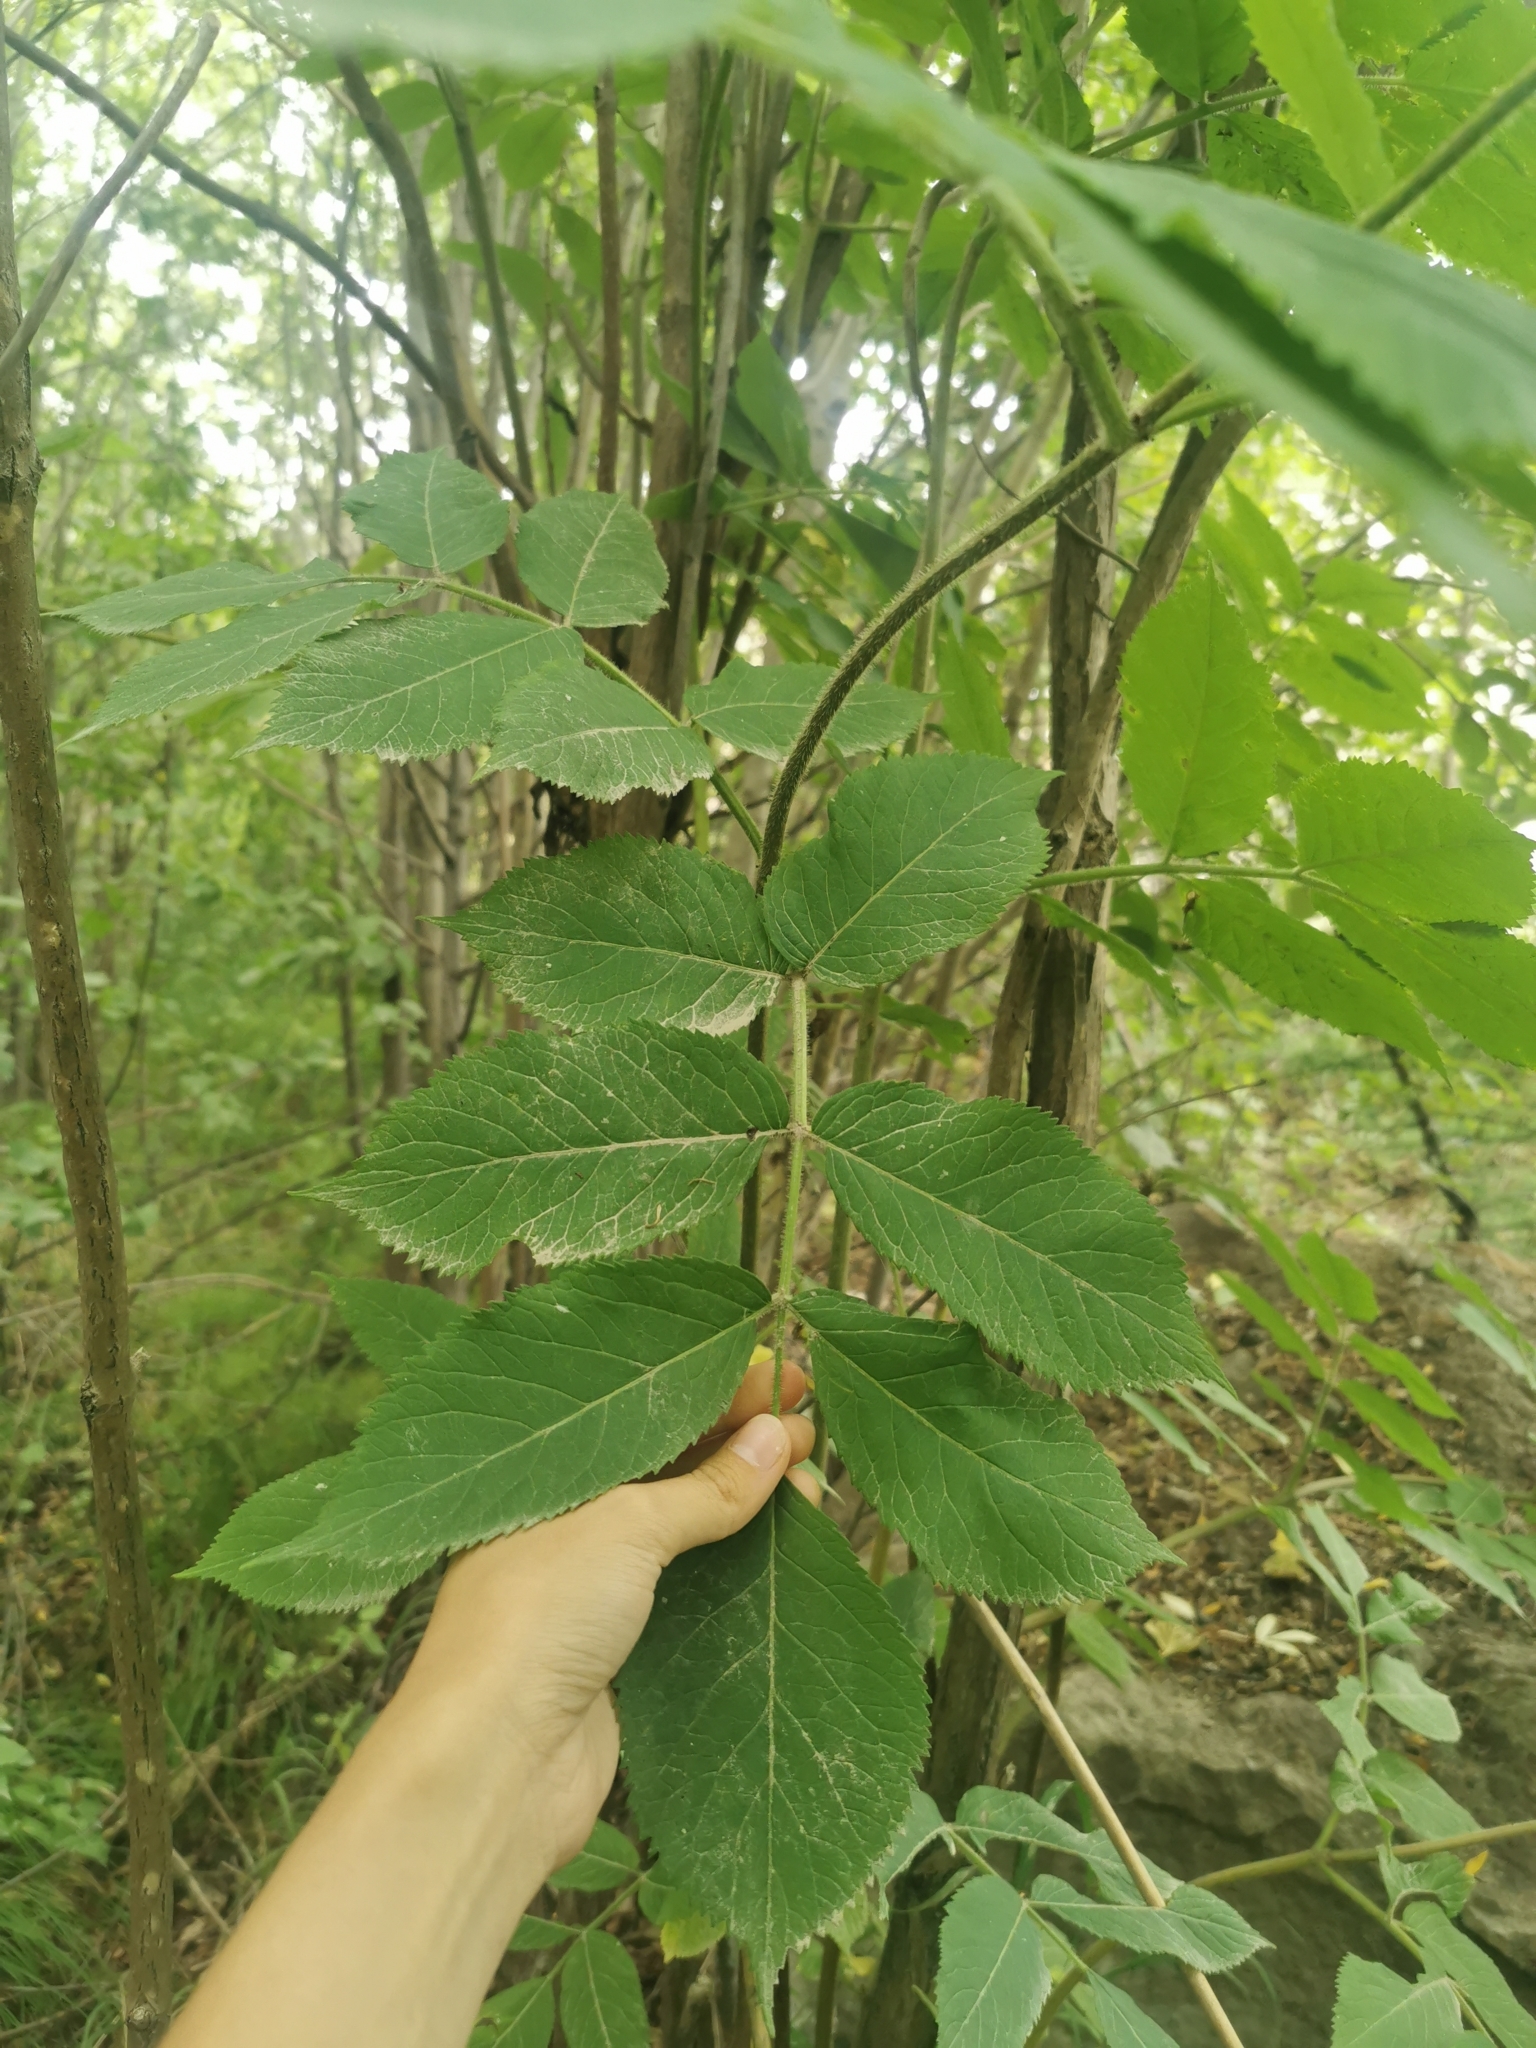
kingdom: Plantae
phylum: Tracheophyta
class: Magnoliopsida
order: Dipsacales
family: Viburnaceae
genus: Sambucus
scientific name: Sambucus kamtschatica
